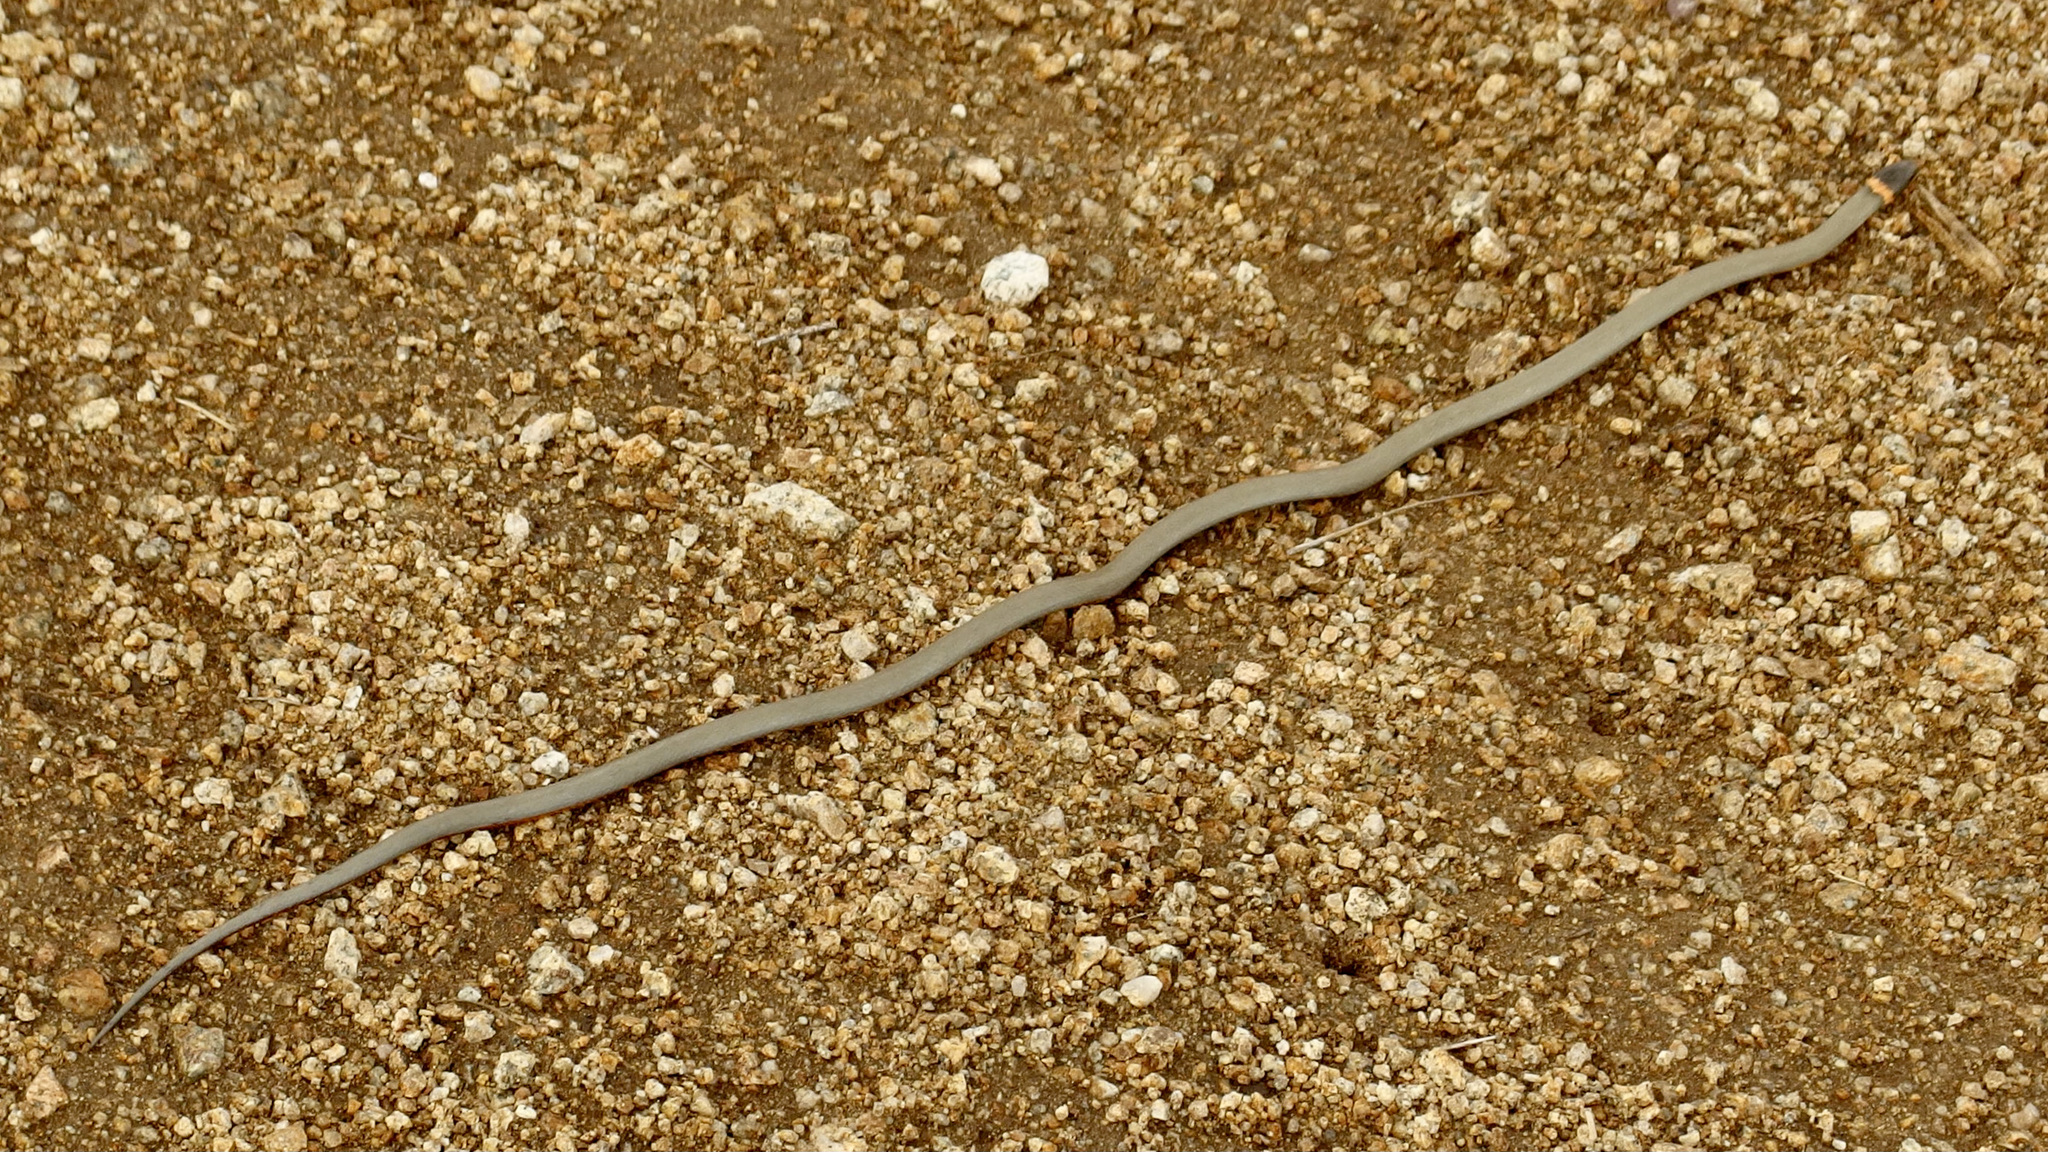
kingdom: Animalia
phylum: Chordata
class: Squamata
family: Colubridae
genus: Diadophis
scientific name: Diadophis punctatus
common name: Ringneck snake
